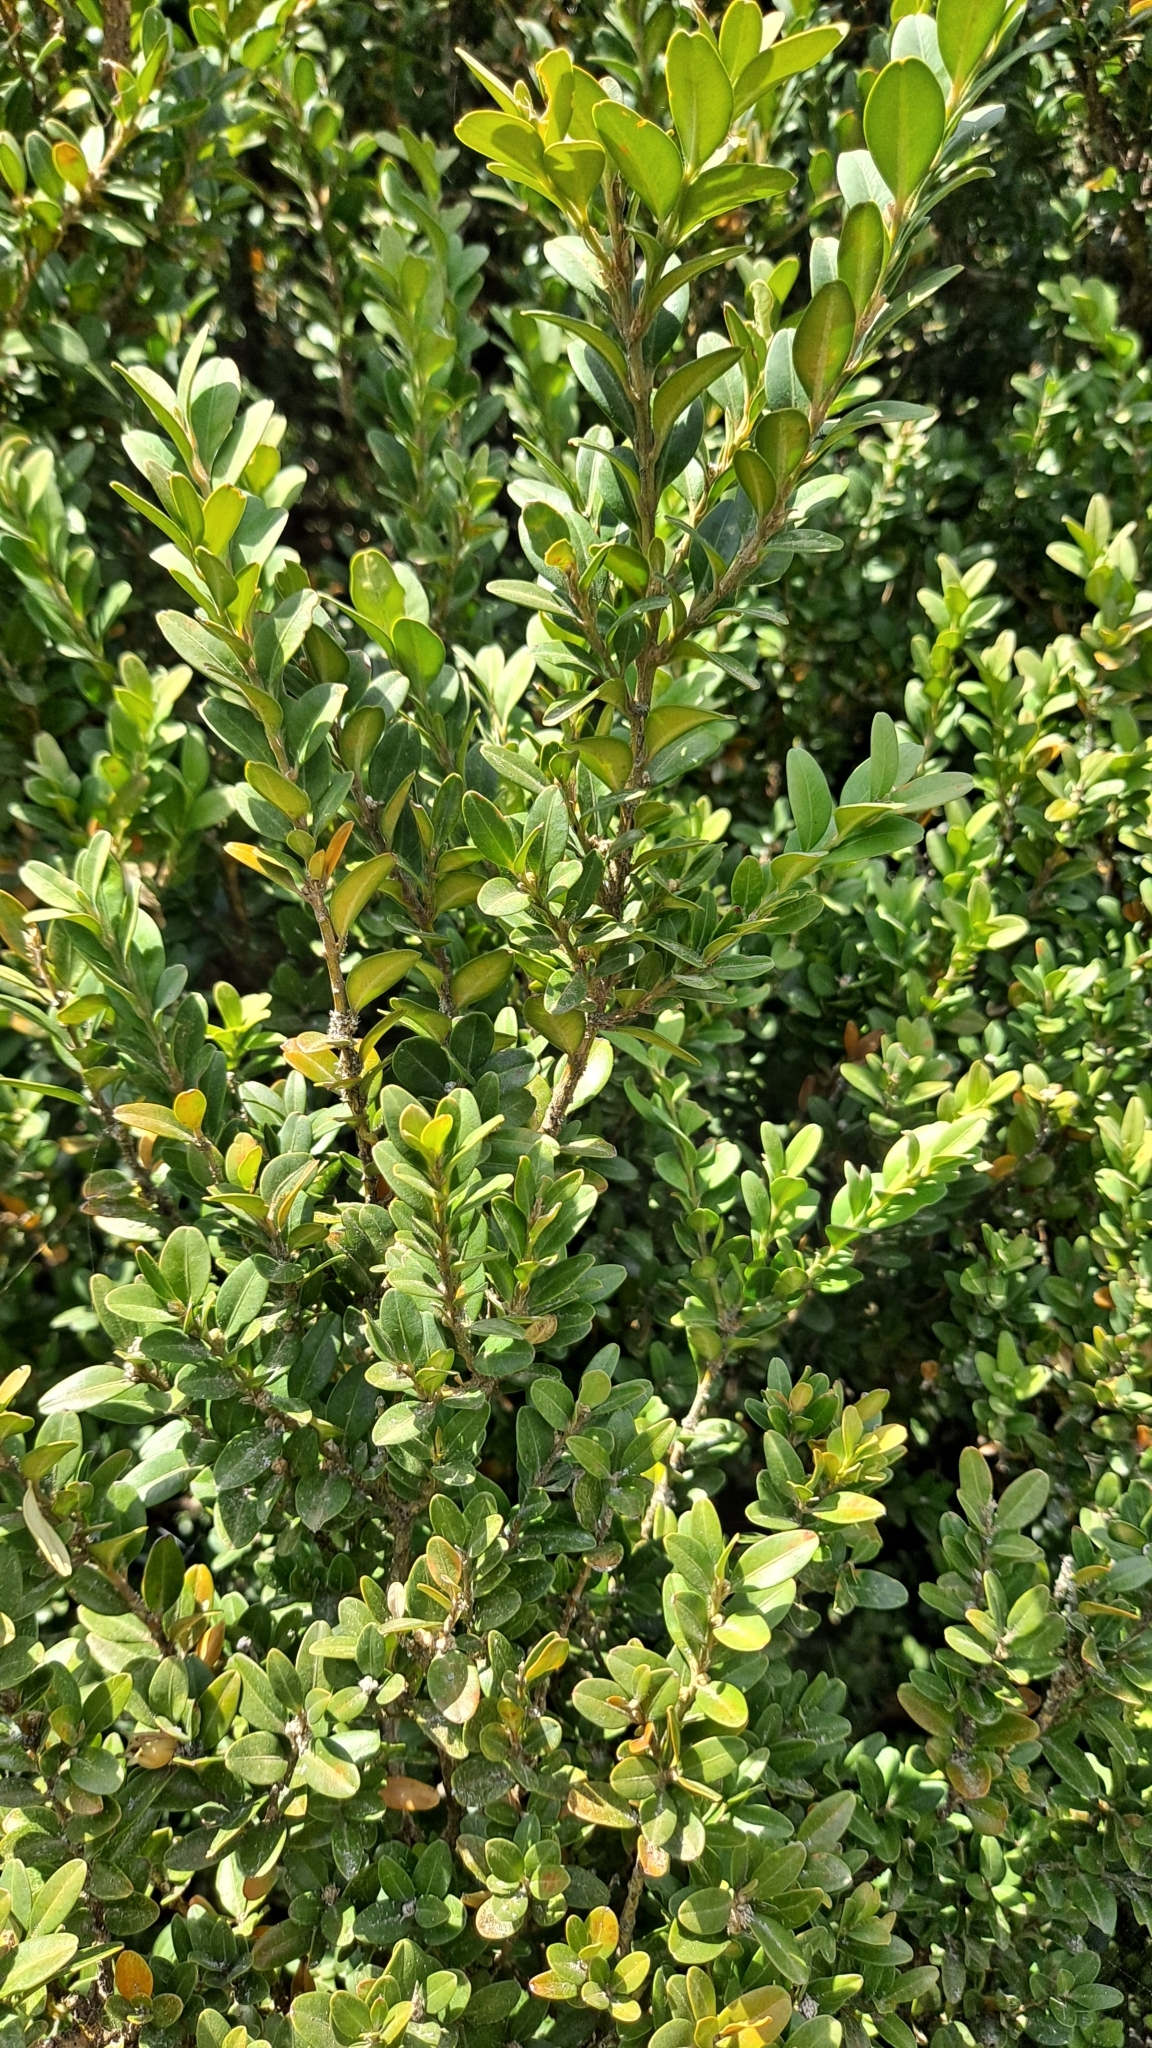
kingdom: Plantae
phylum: Tracheophyta
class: Magnoliopsida
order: Buxales
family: Buxaceae
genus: Buxus
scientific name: Buxus sempervirens
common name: Box
